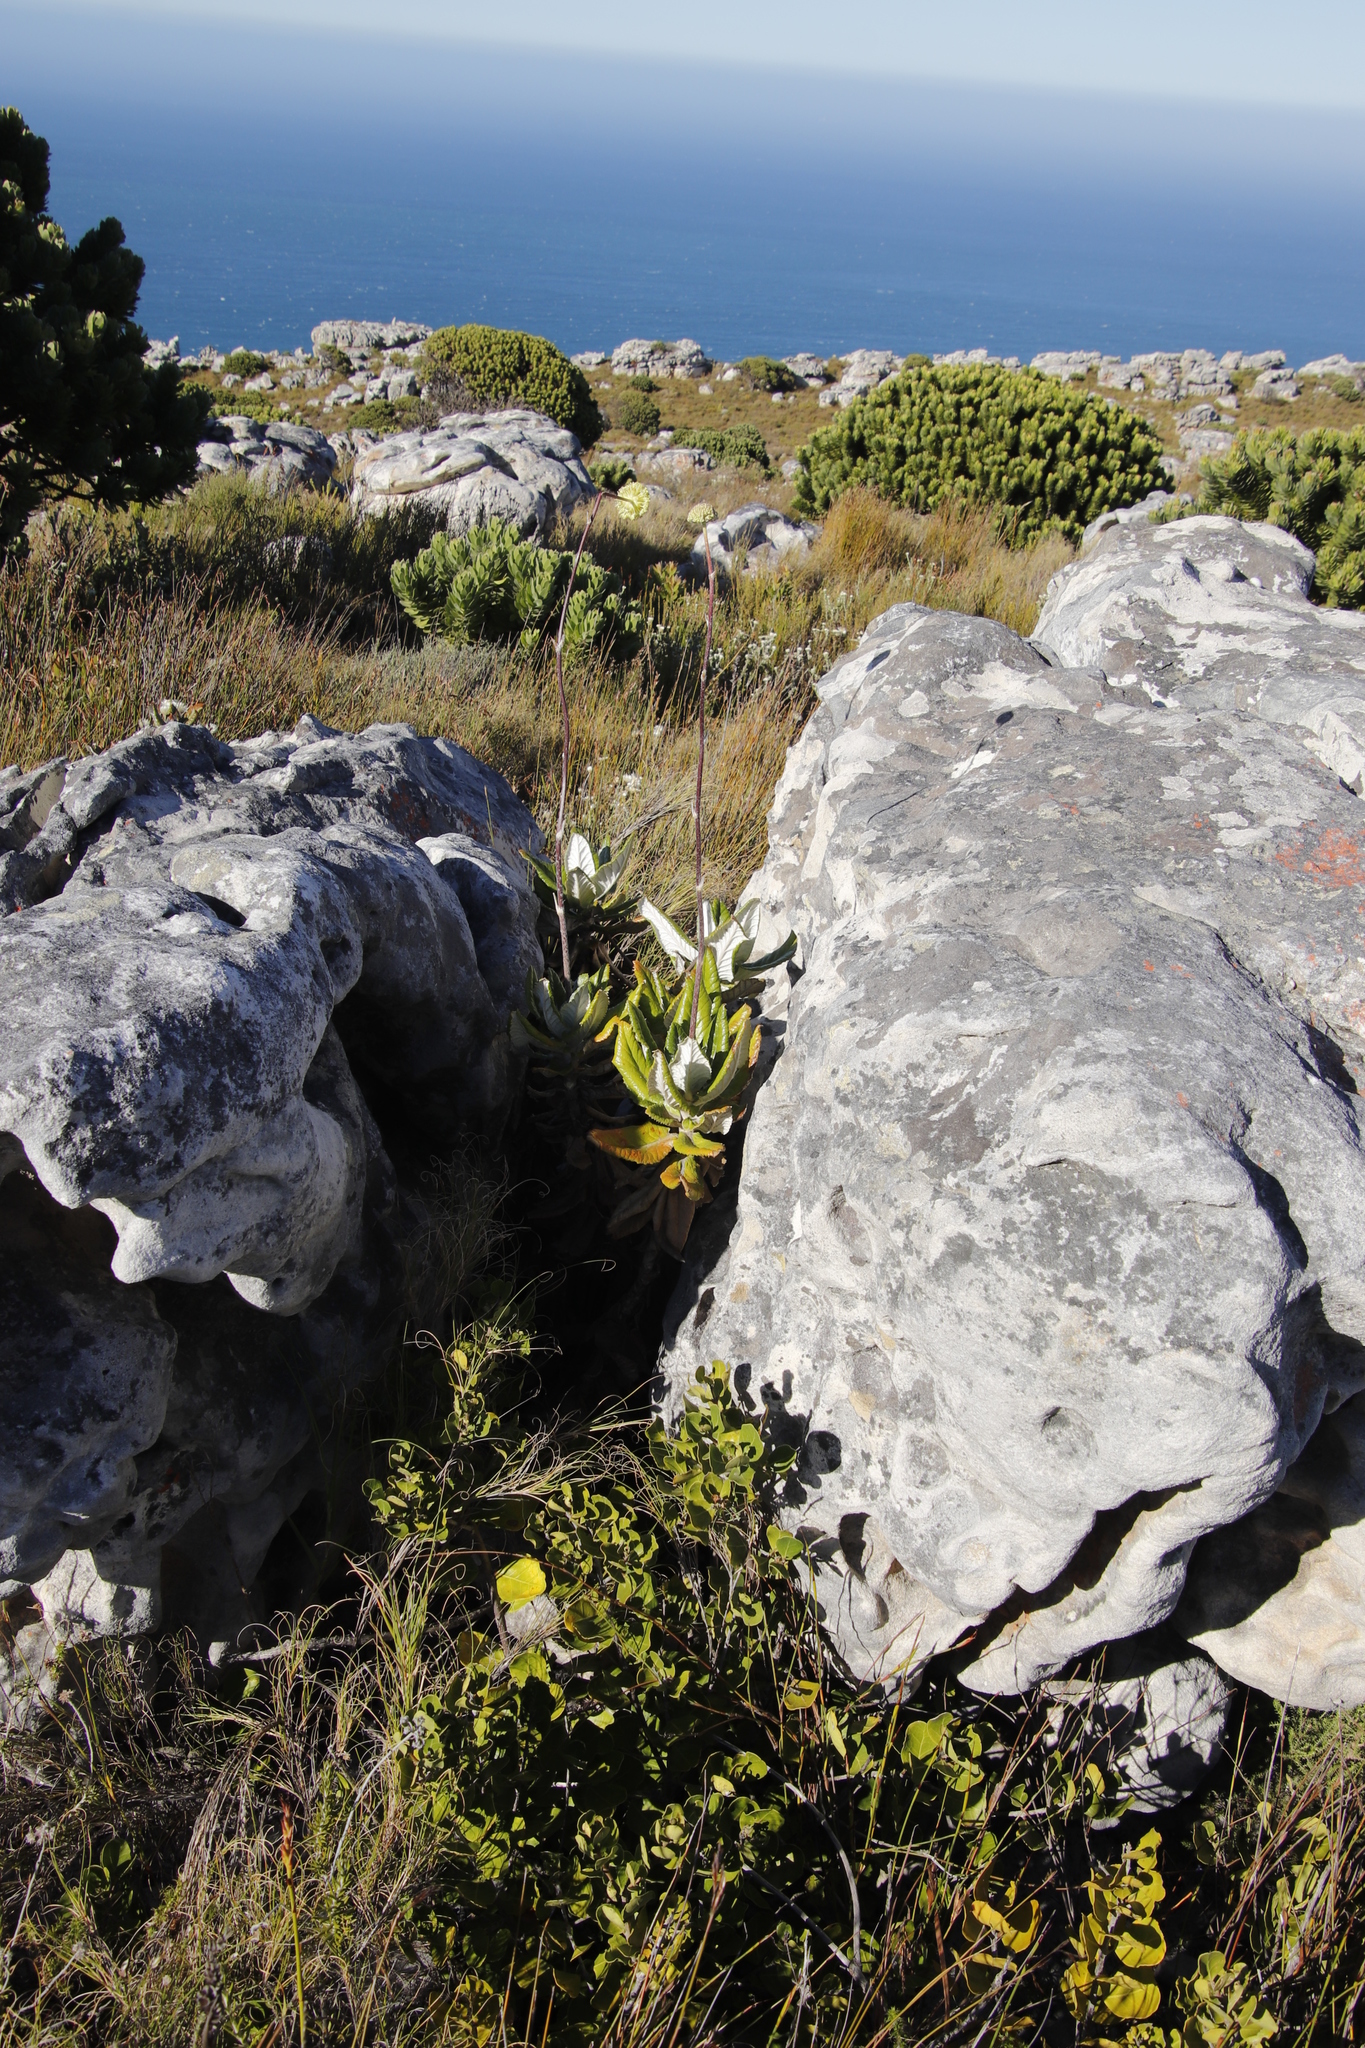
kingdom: Plantae
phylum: Tracheophyta
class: Magnoliopsida
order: Apiales
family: Apiaceae
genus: Hermas
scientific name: Hermas villosa
